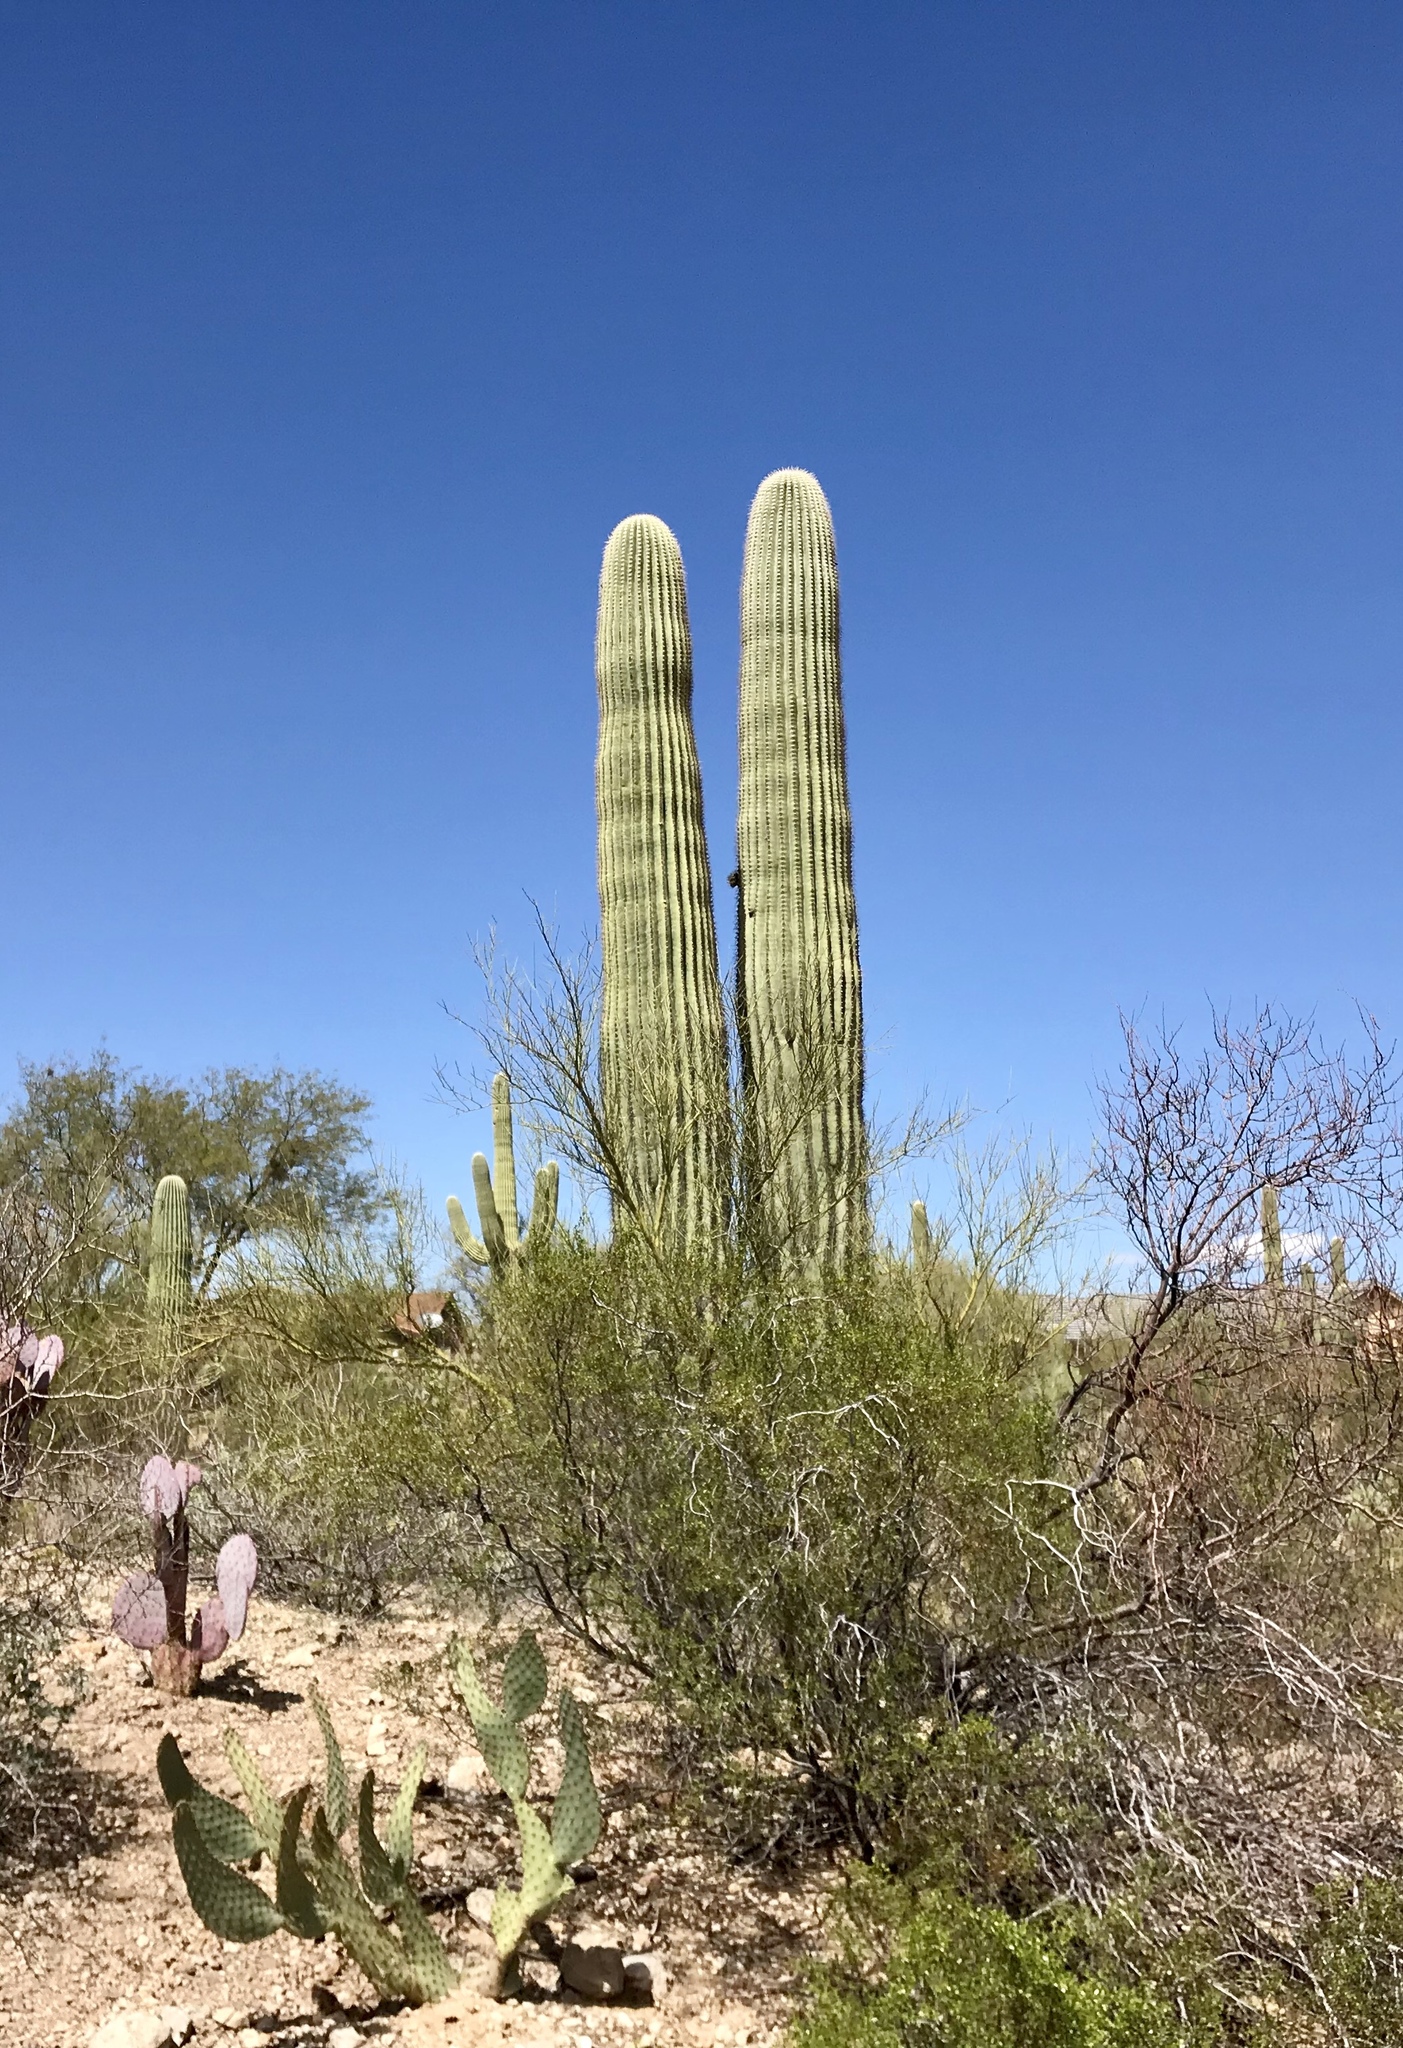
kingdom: Plantae
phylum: Tracheophyta
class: Magnoliopsida
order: Caryophyllales
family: Cactaceae
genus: Carnegiea
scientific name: Carnegiea gigantea
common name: Saguaro
